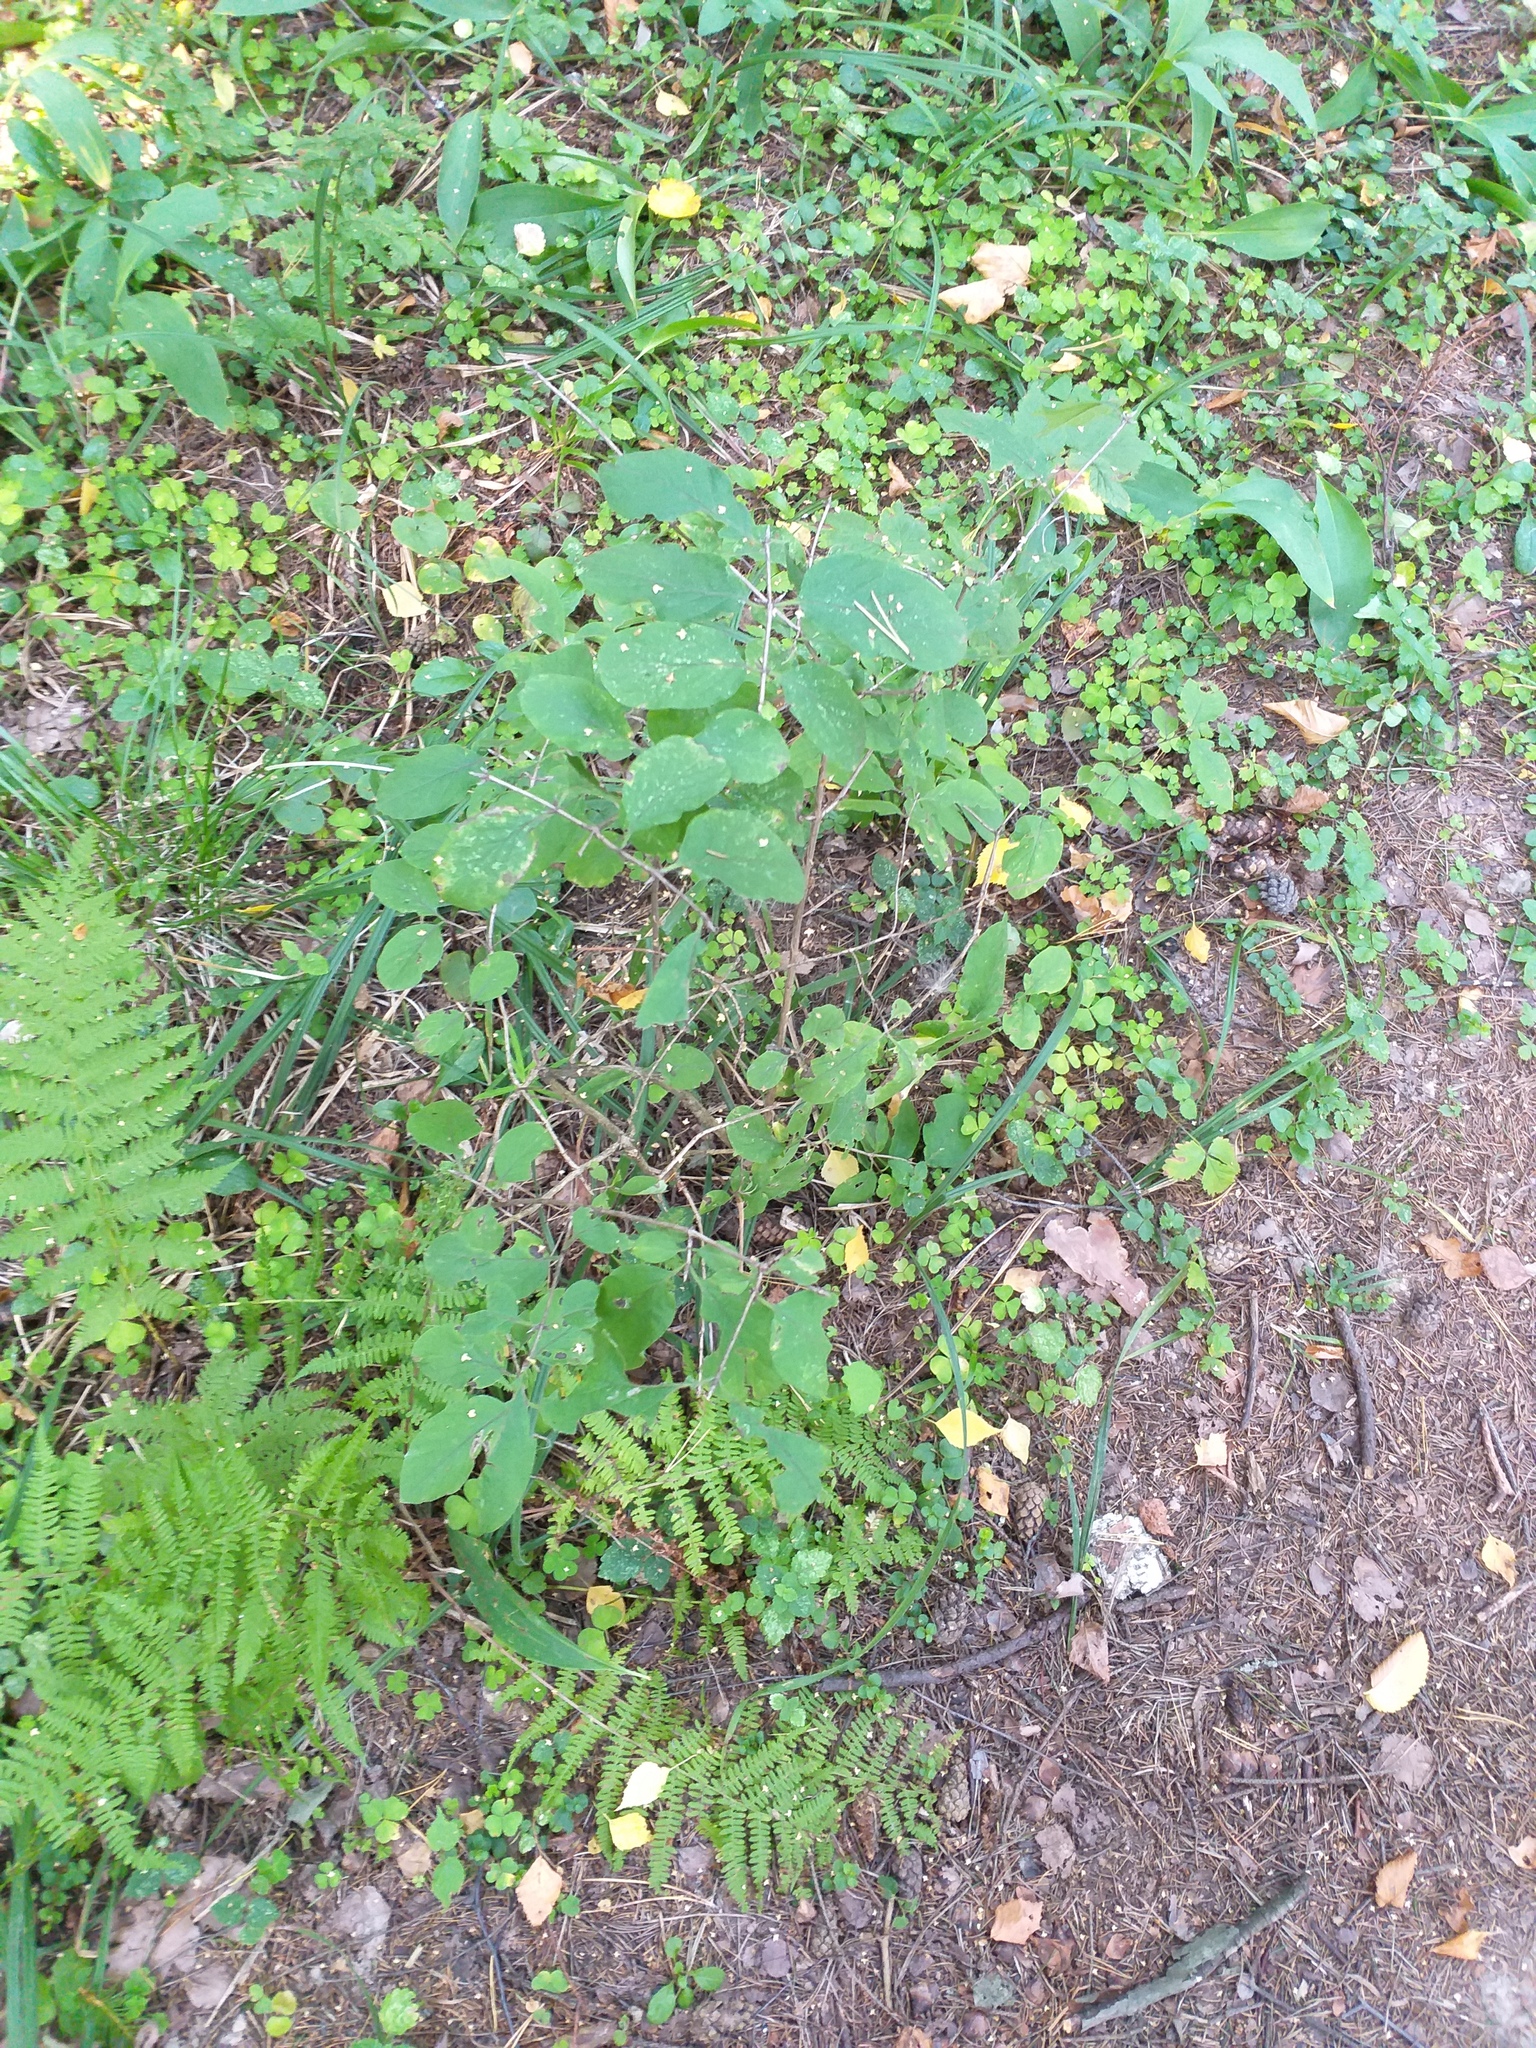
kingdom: Plantae
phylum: Tracheophyta
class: Magnoliopsida
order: Dipsacales
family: Caprifoliaceae
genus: Lonicera
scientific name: Lonicera xylosteum
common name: Fly honeysuckle
